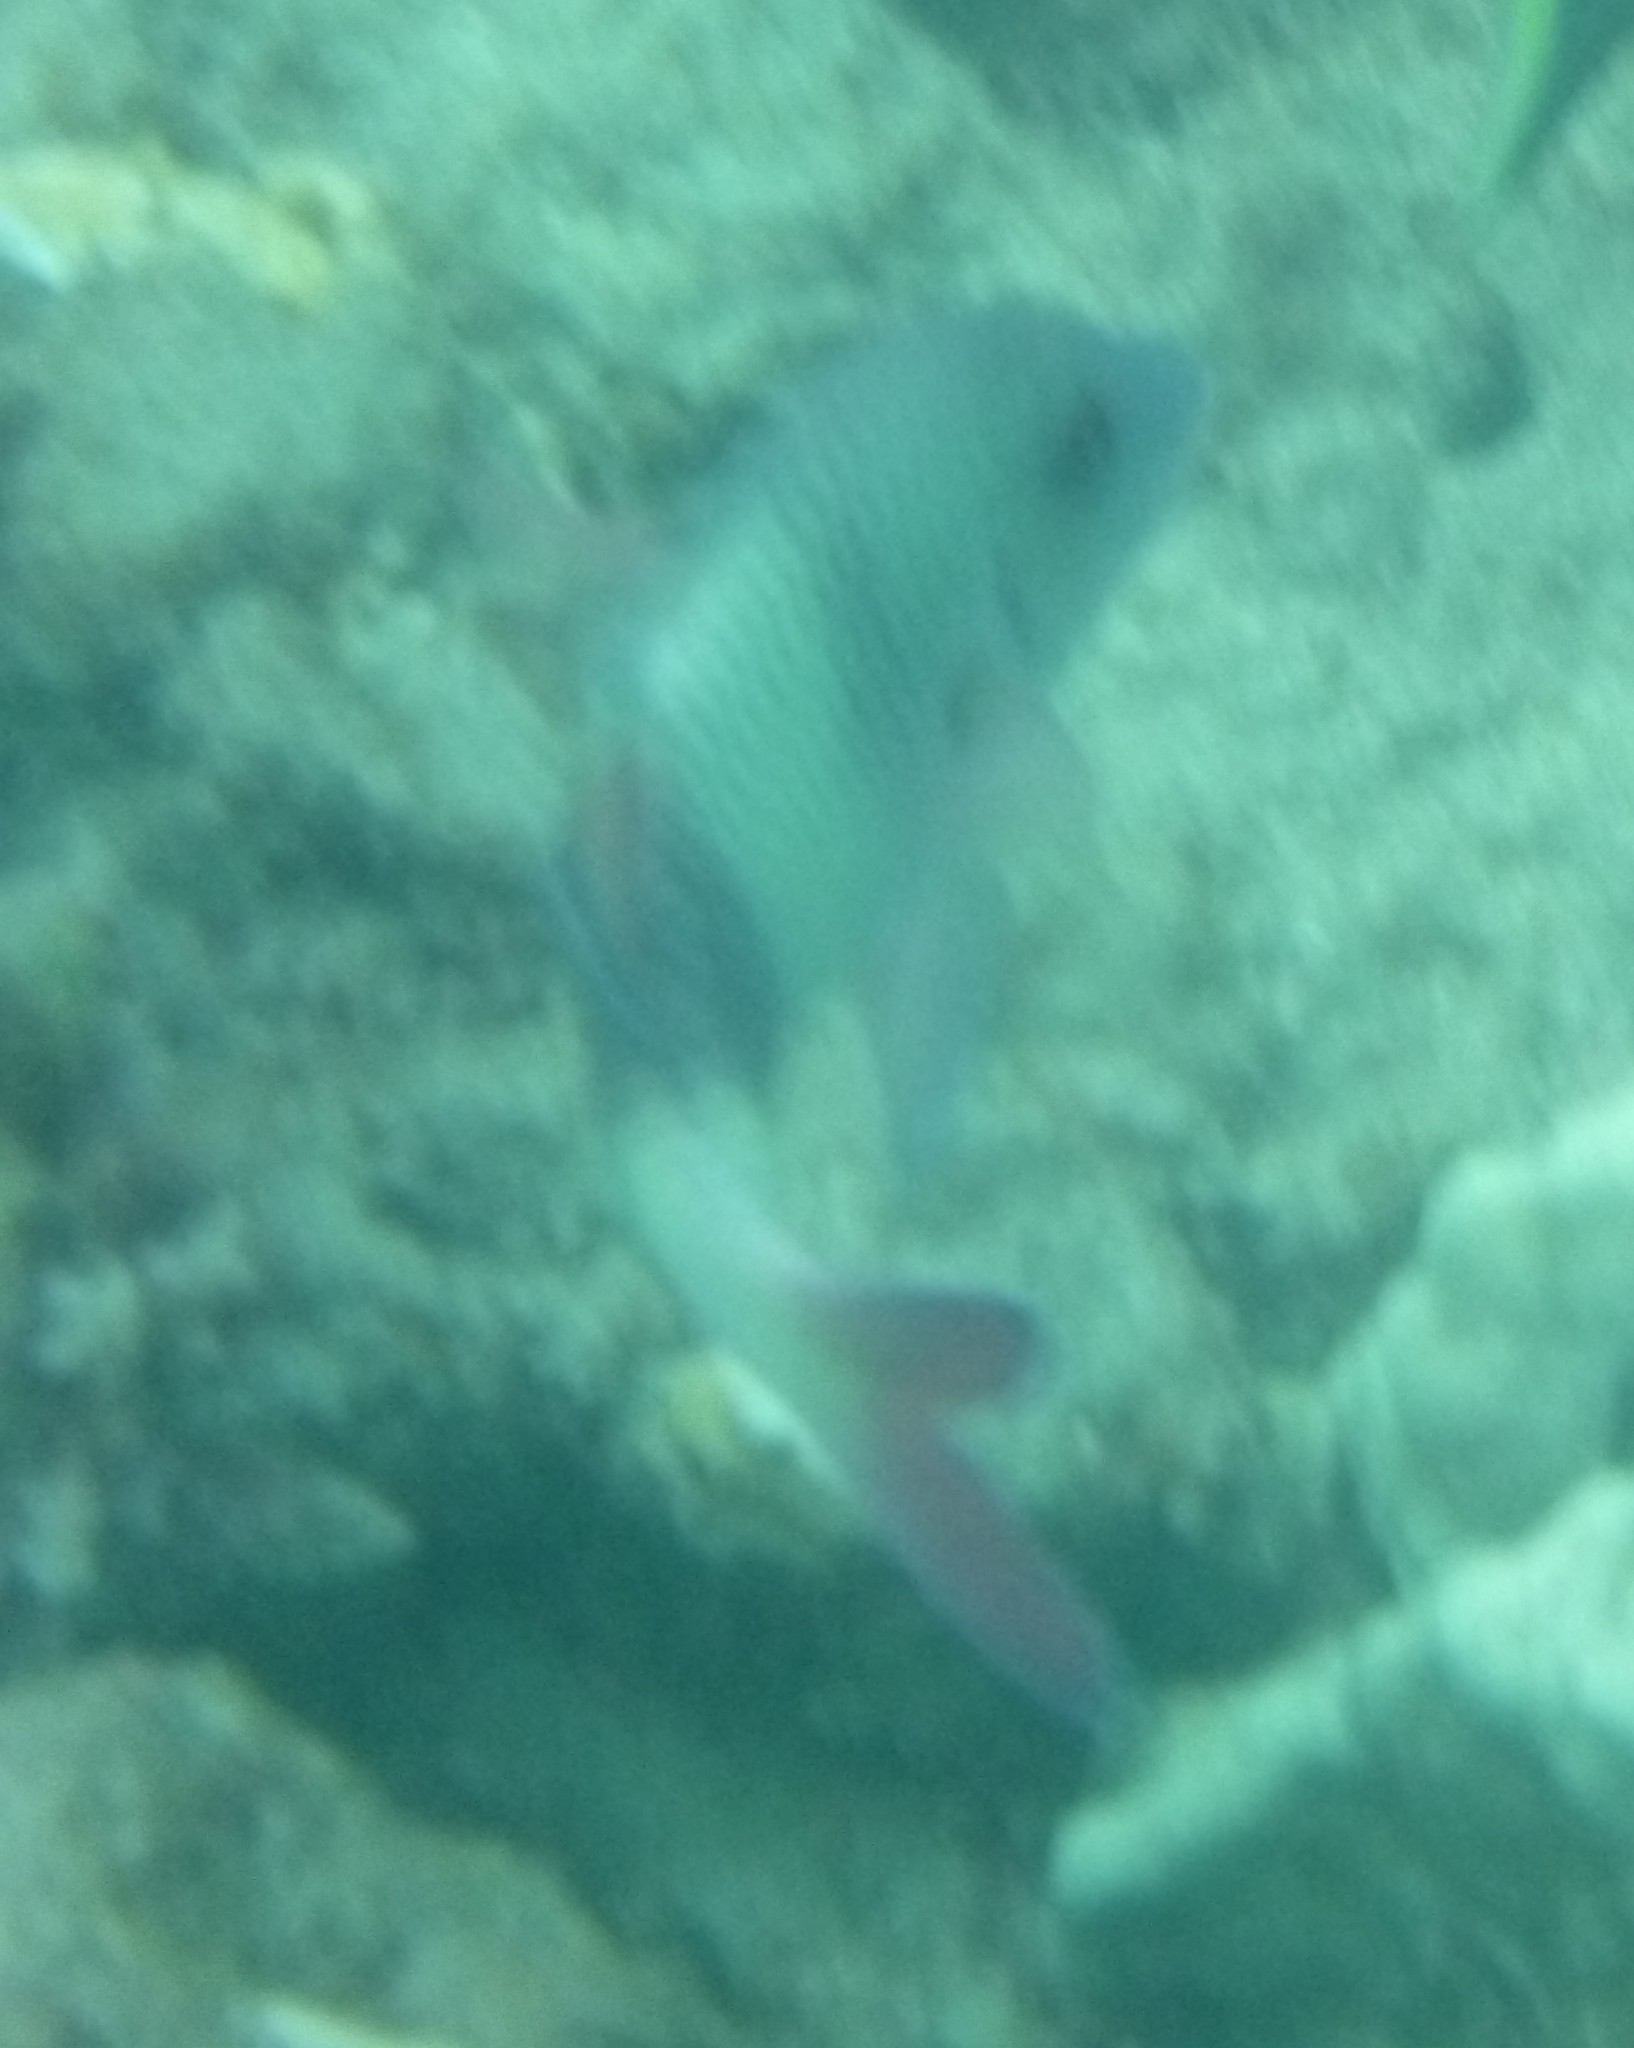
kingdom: Animalia
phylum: Chordata
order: Perciformes
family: Mullidae
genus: Parupeneus
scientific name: Parupeneus insularis
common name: Doublebar goatfish
